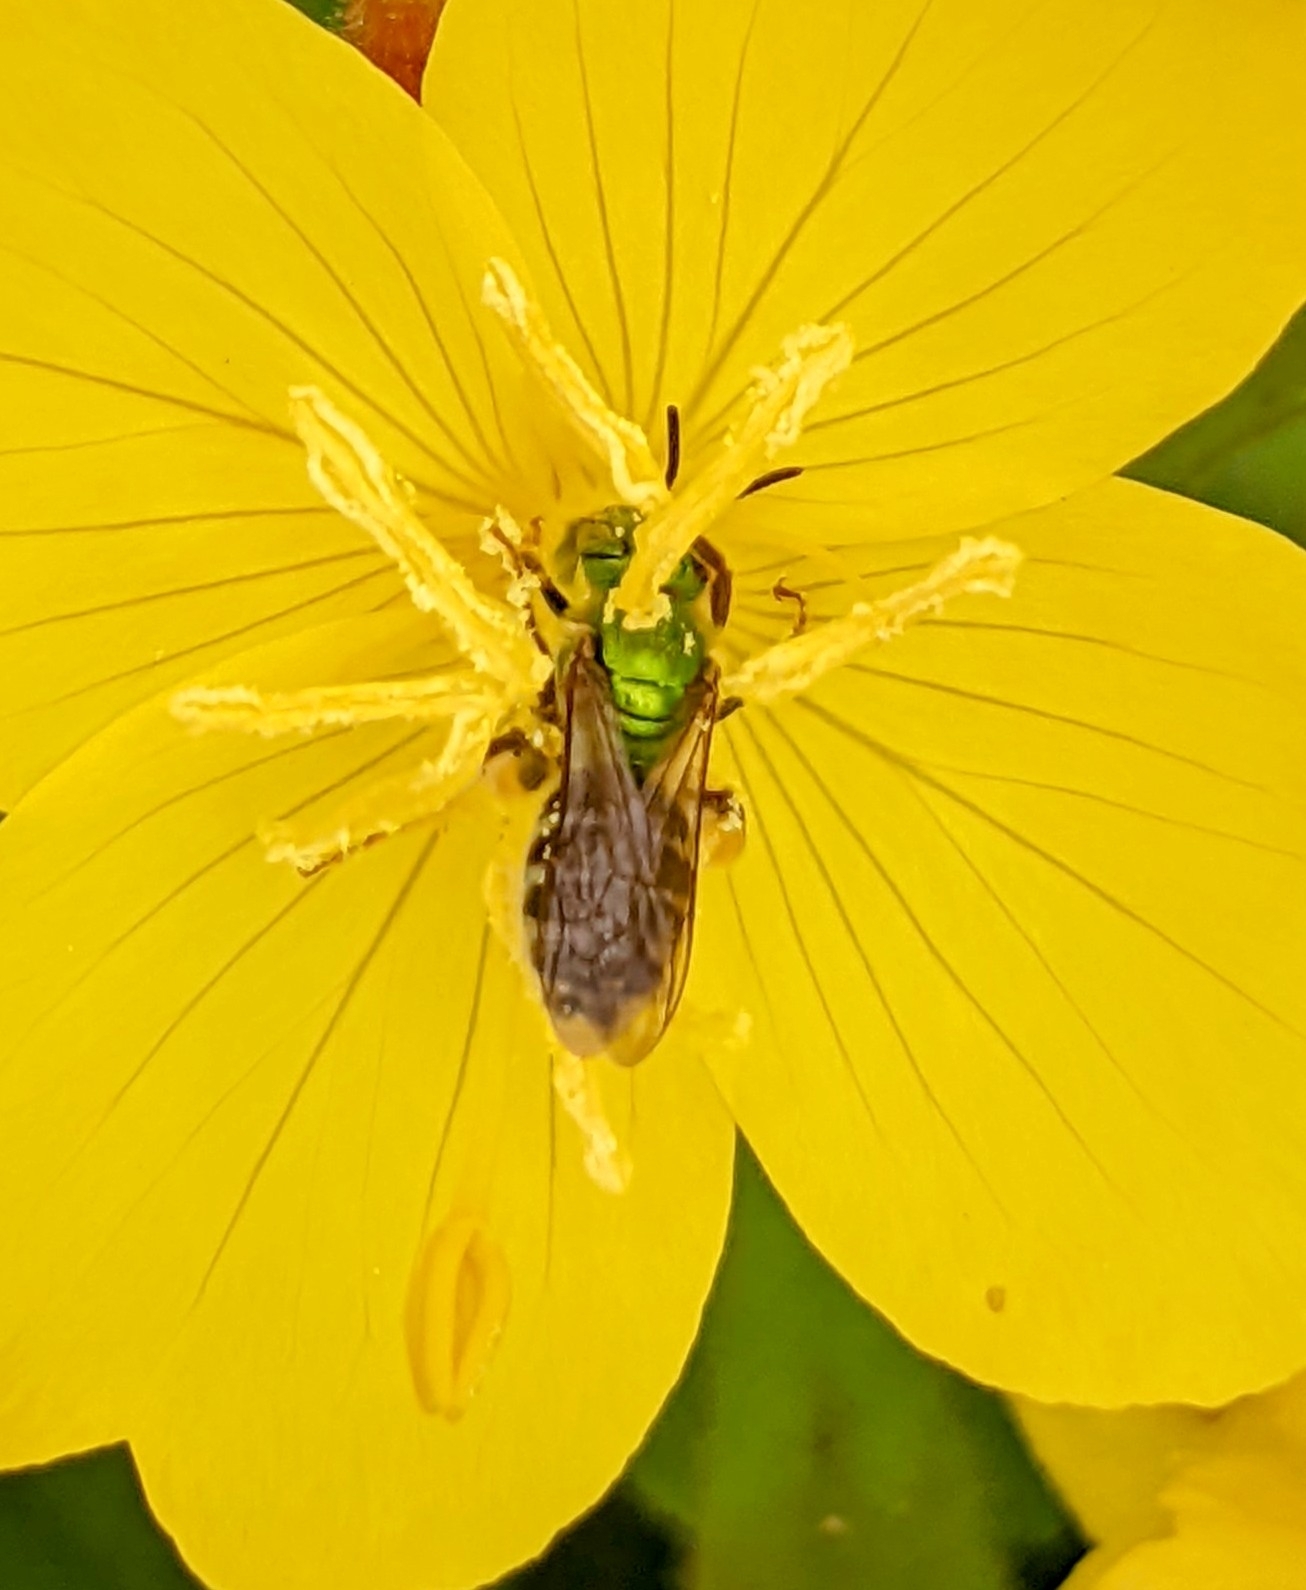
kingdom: Animalia
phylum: Arthropoda
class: Insecta
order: Hymenoptera
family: Halictidae
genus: Agapostemon
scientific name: Agapostemon virescens
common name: Bicolored striped sweat bee
